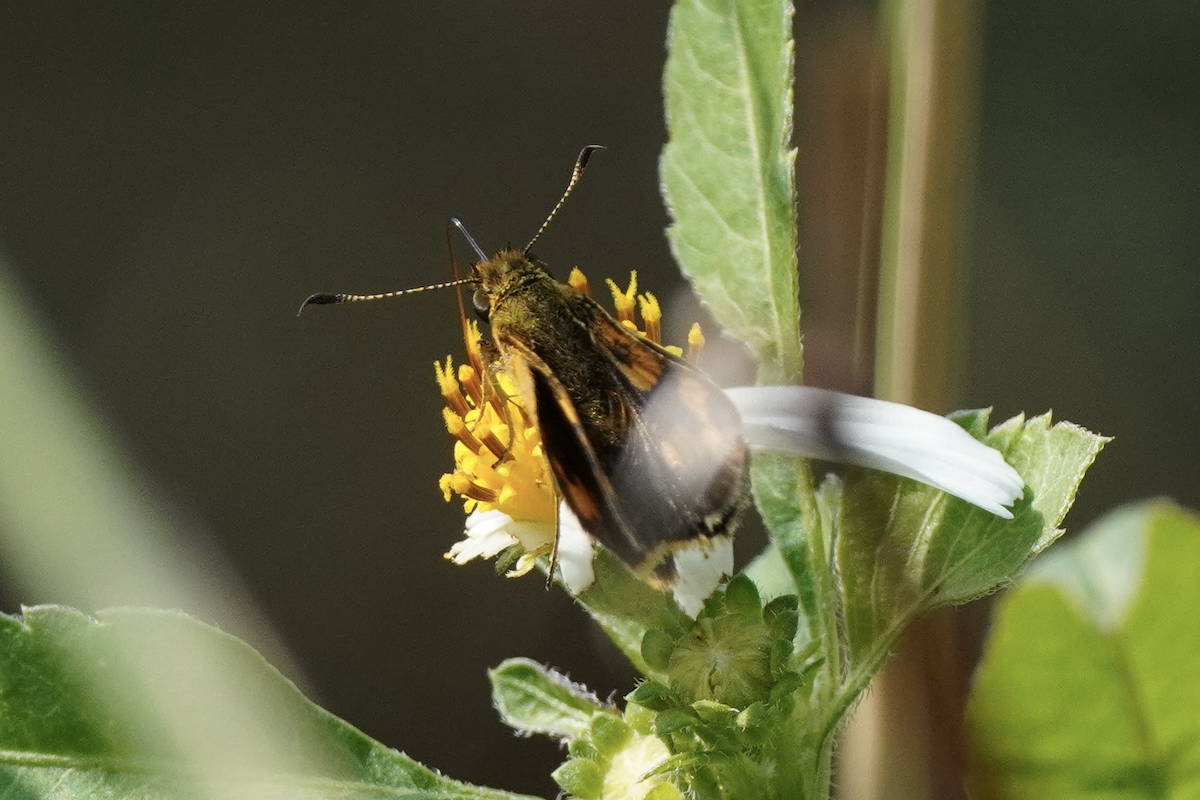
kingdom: Animalia
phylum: Arthropoda
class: Insecta
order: Lepidoptera
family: Hesperiidae
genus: Potanthus
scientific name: Potanthus confucius
